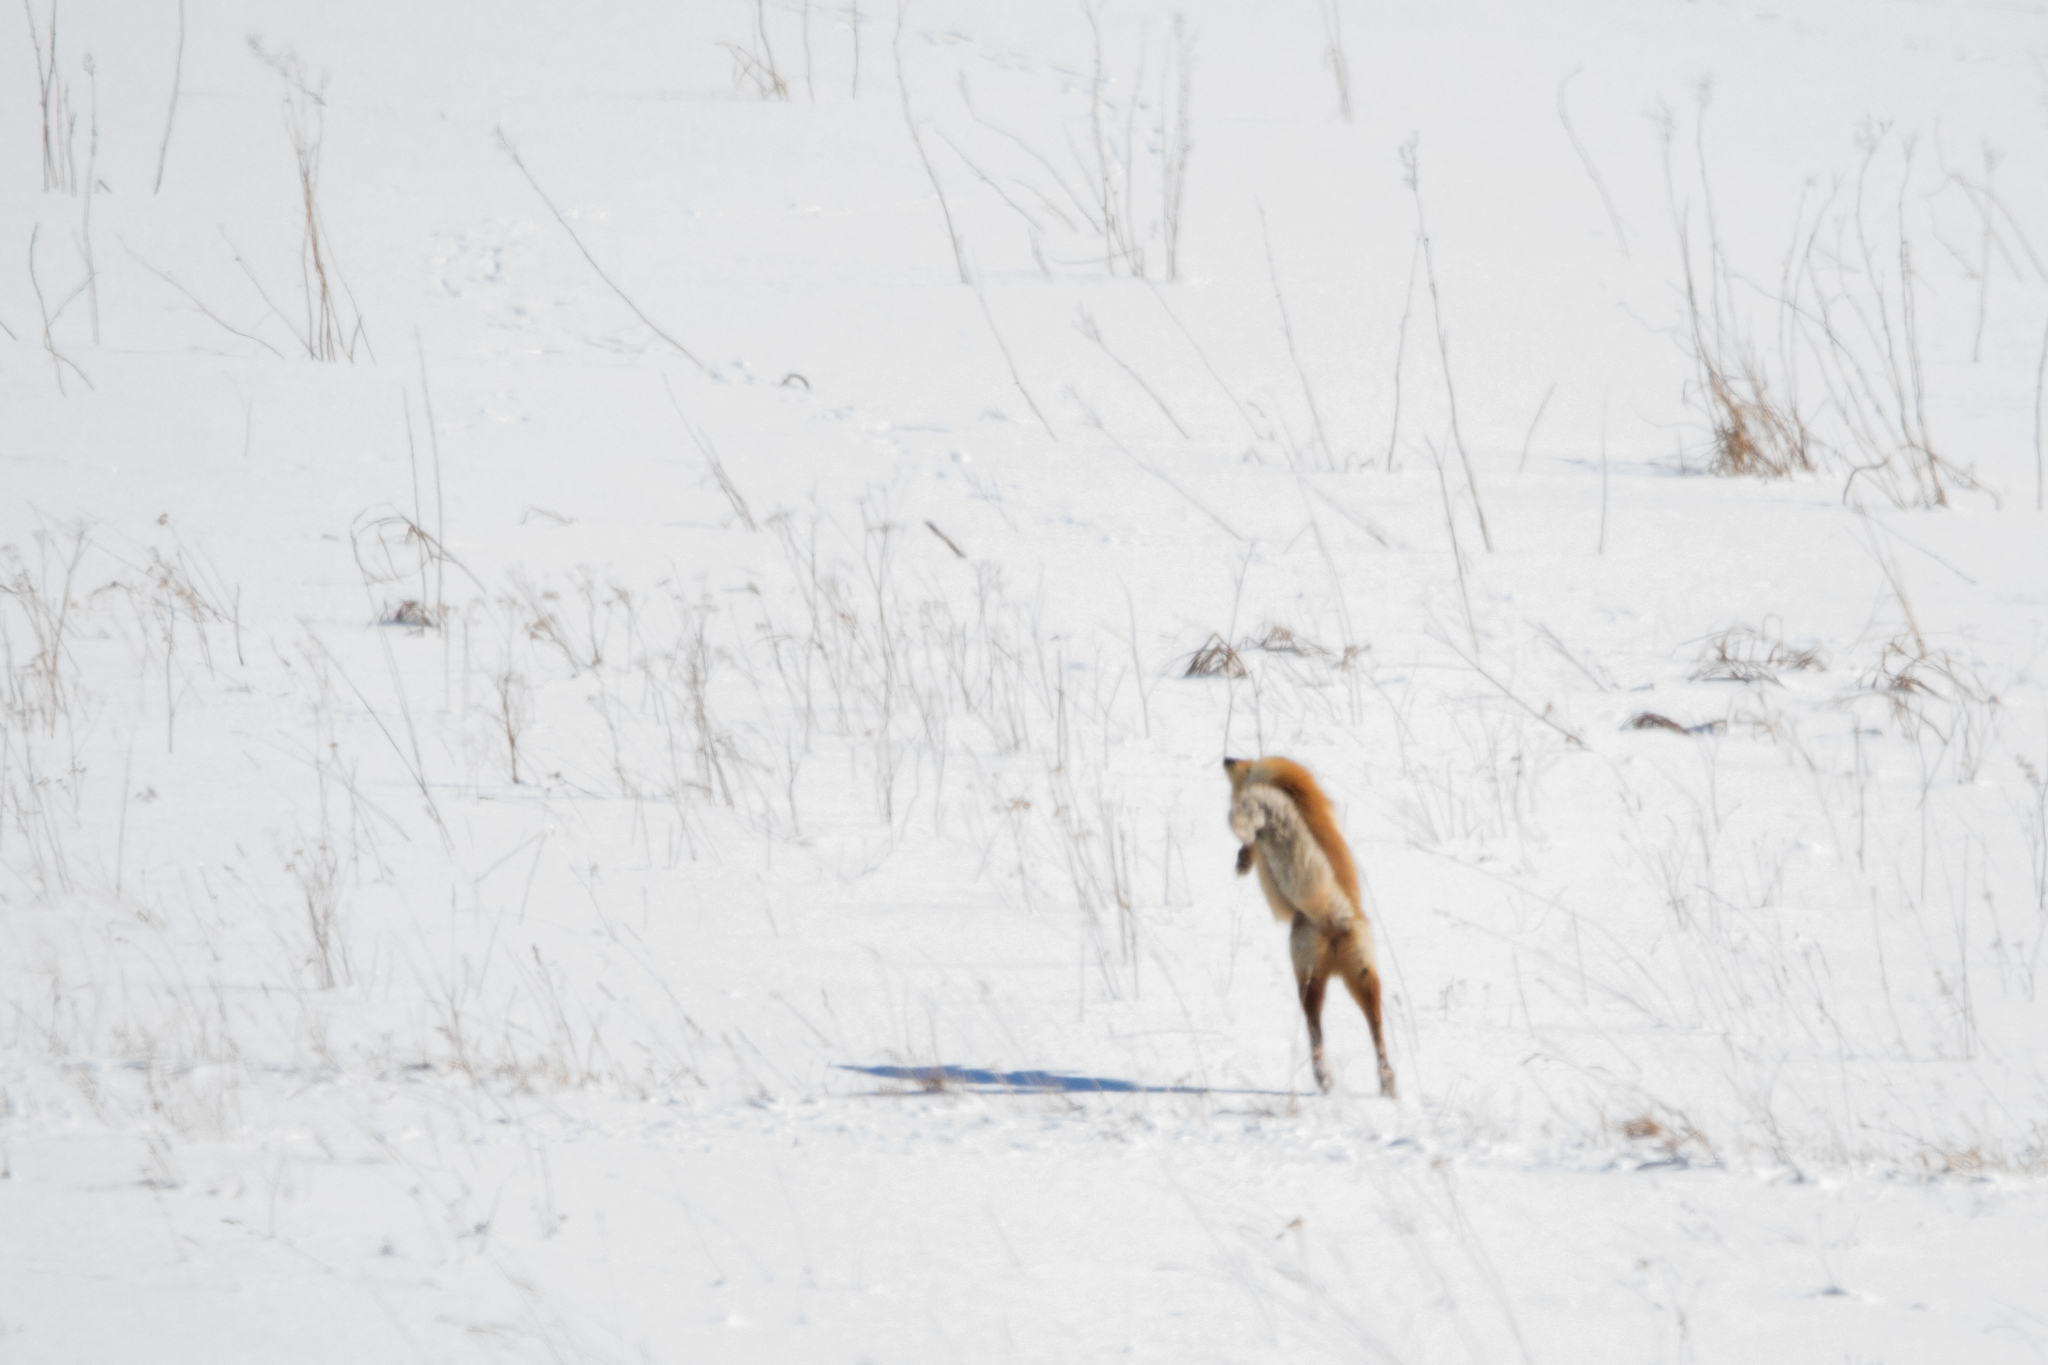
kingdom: Animalia
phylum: Chordata
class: Mammalia
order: Carnivora
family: Canidae
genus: Vulpes
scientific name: Vulpes vulpes
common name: Red fox
